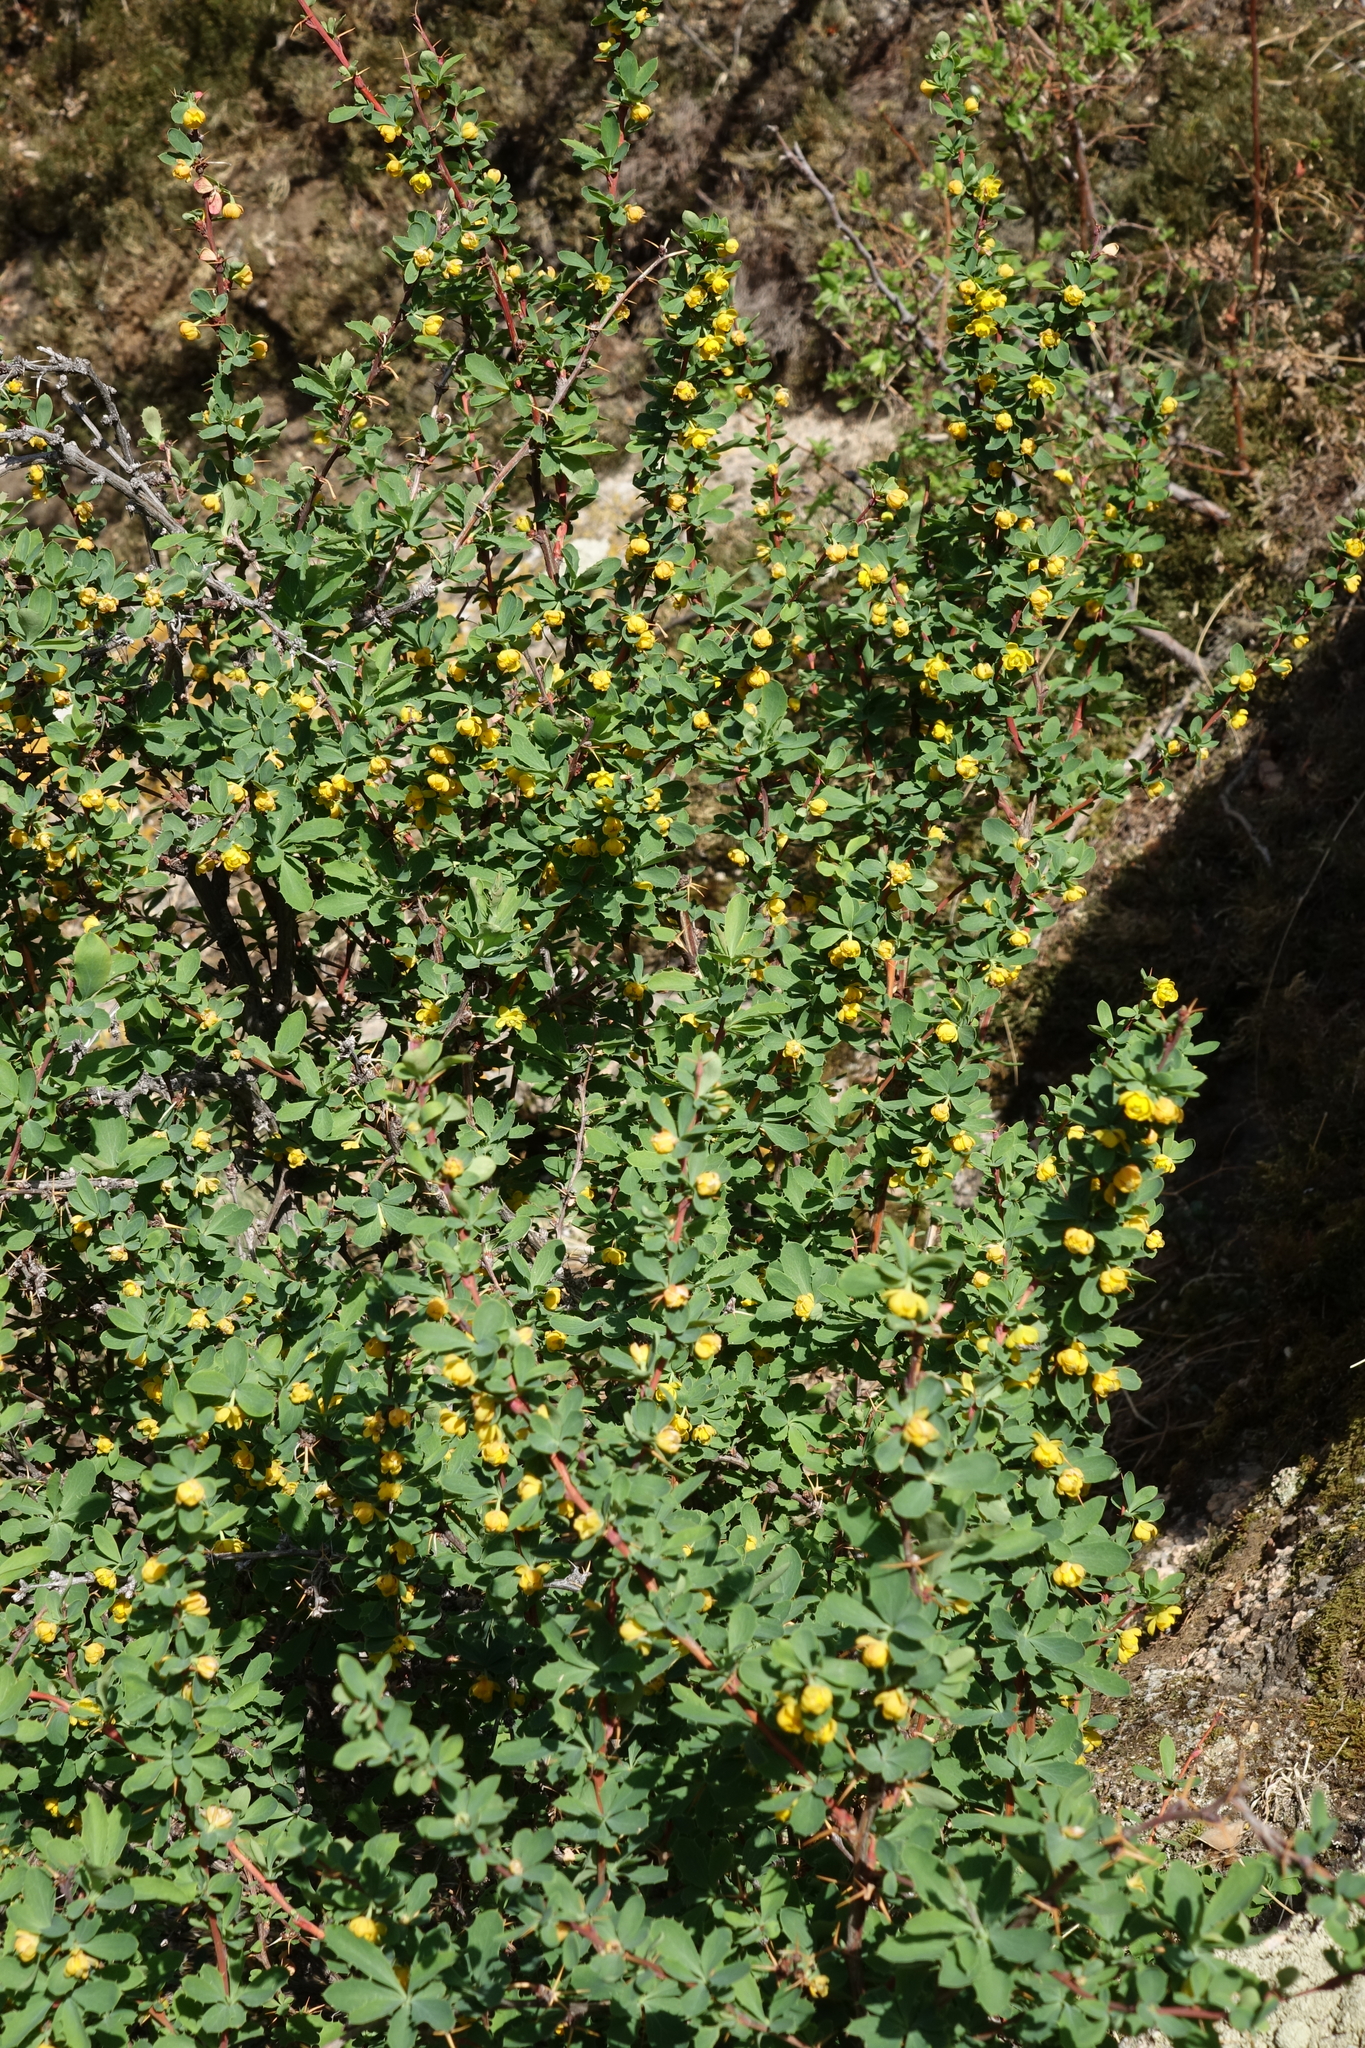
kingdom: Plantae
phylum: Tracheophyta
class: Magnoliopsida
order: Ranunculales
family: Berberidaceae
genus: Berberis
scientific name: Berberis sibirica
